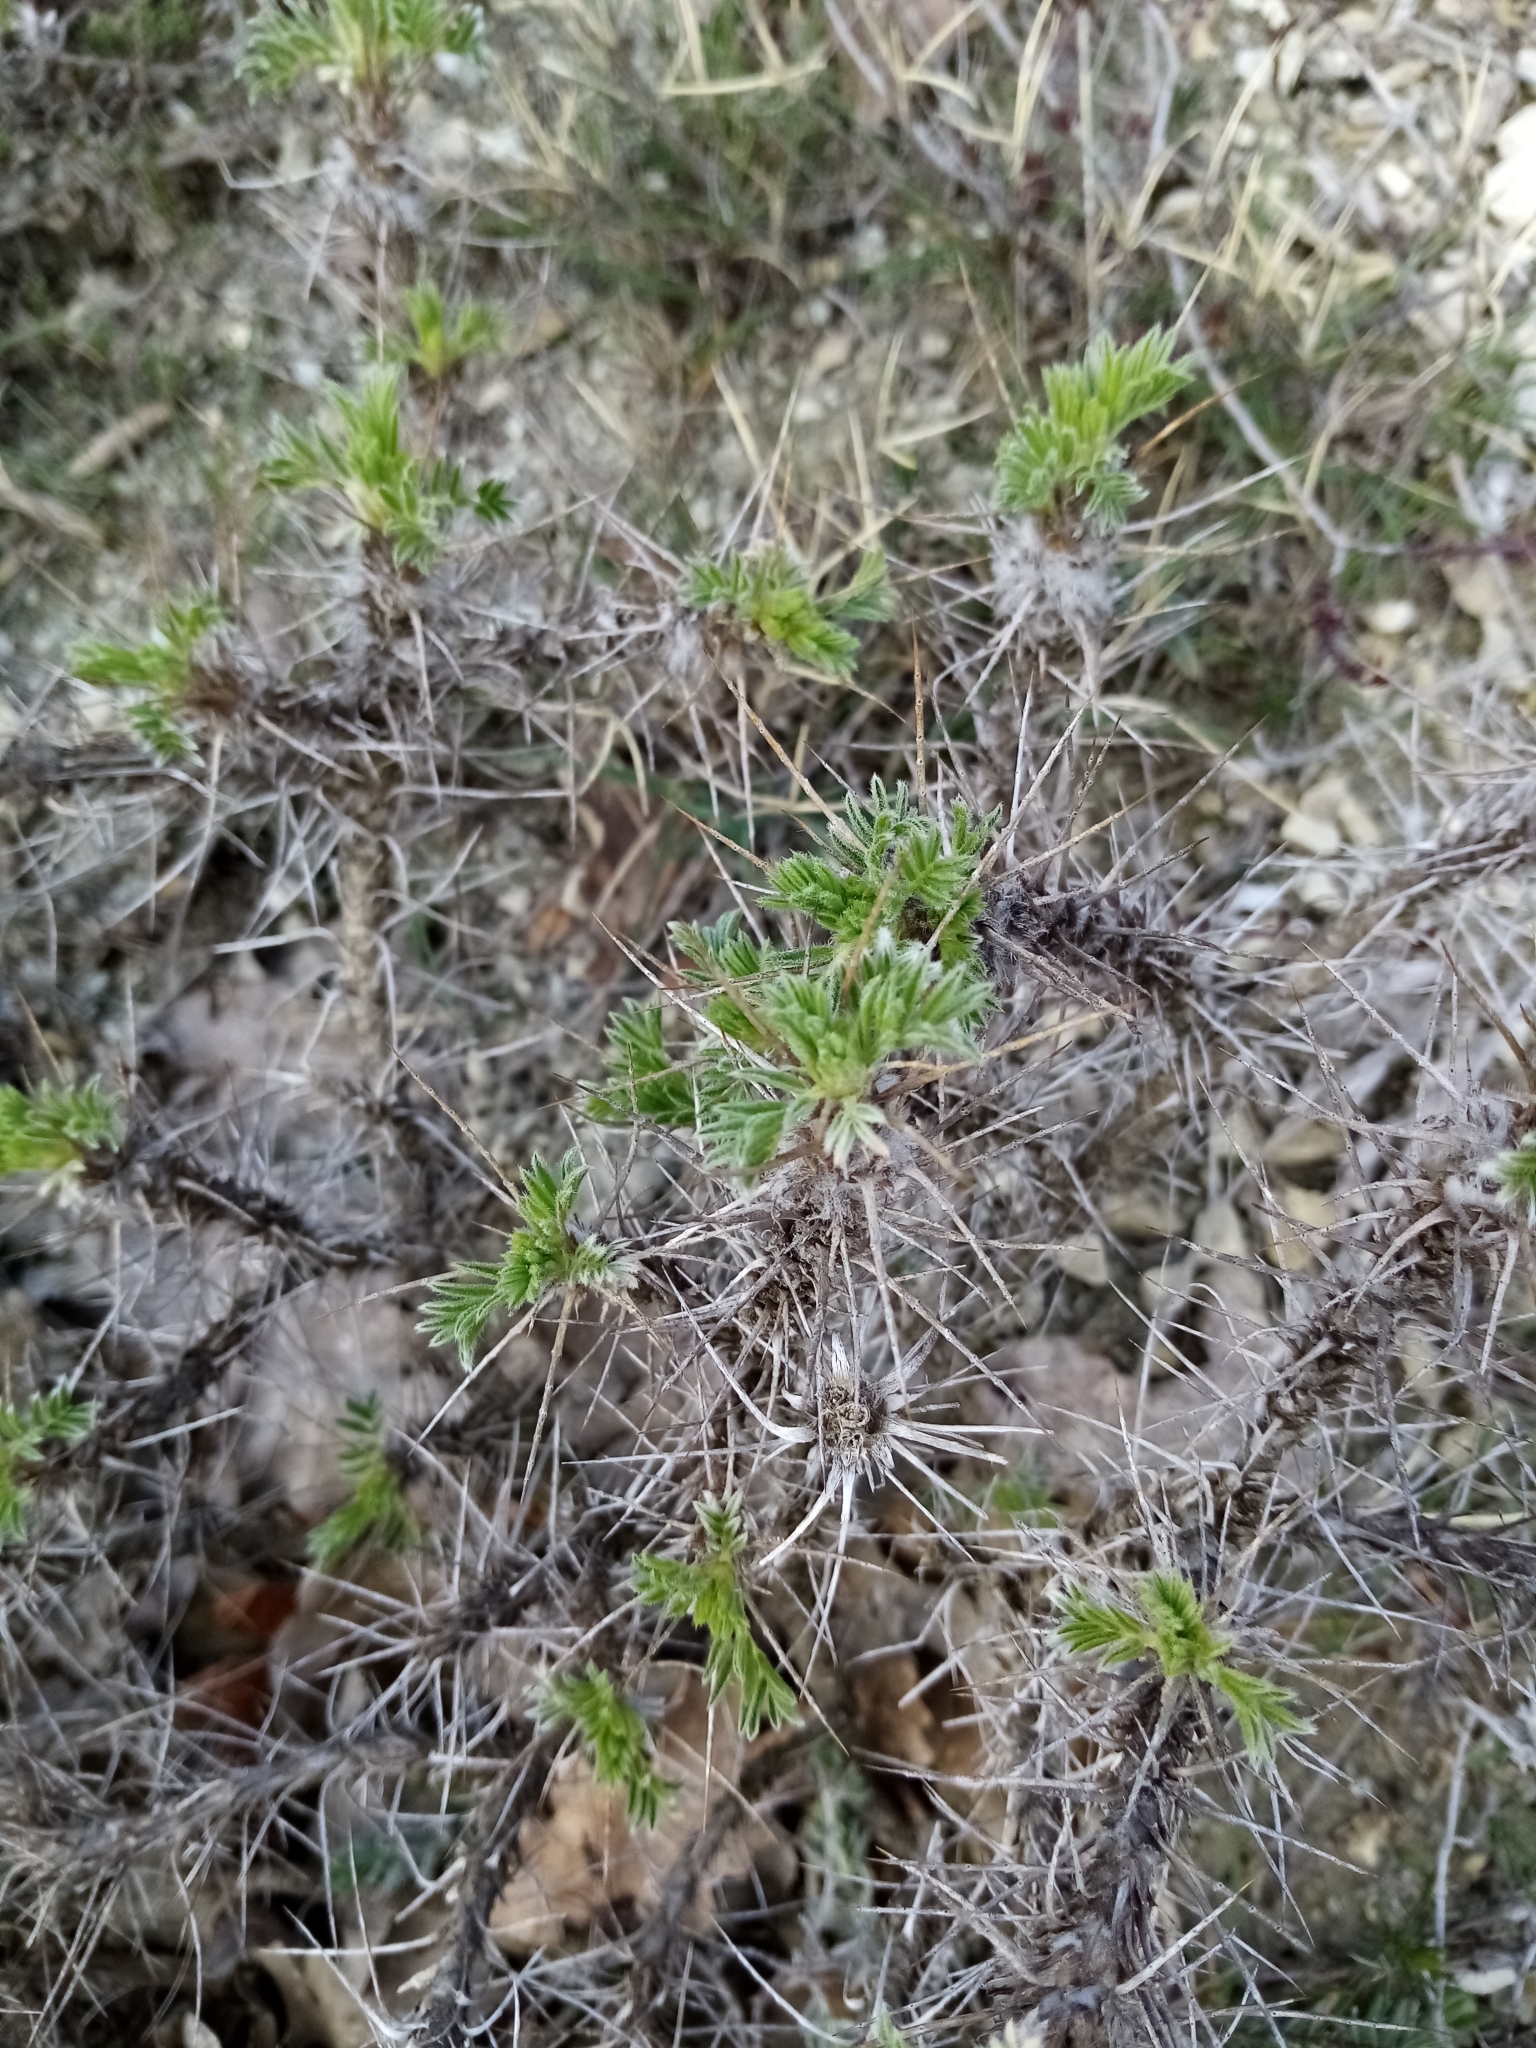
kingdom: Plantae
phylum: Tracheophyta
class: Magnoliopsida
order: Fabales
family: Fabaceae
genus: Astragalus
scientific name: Astragalus arnacanthoides
